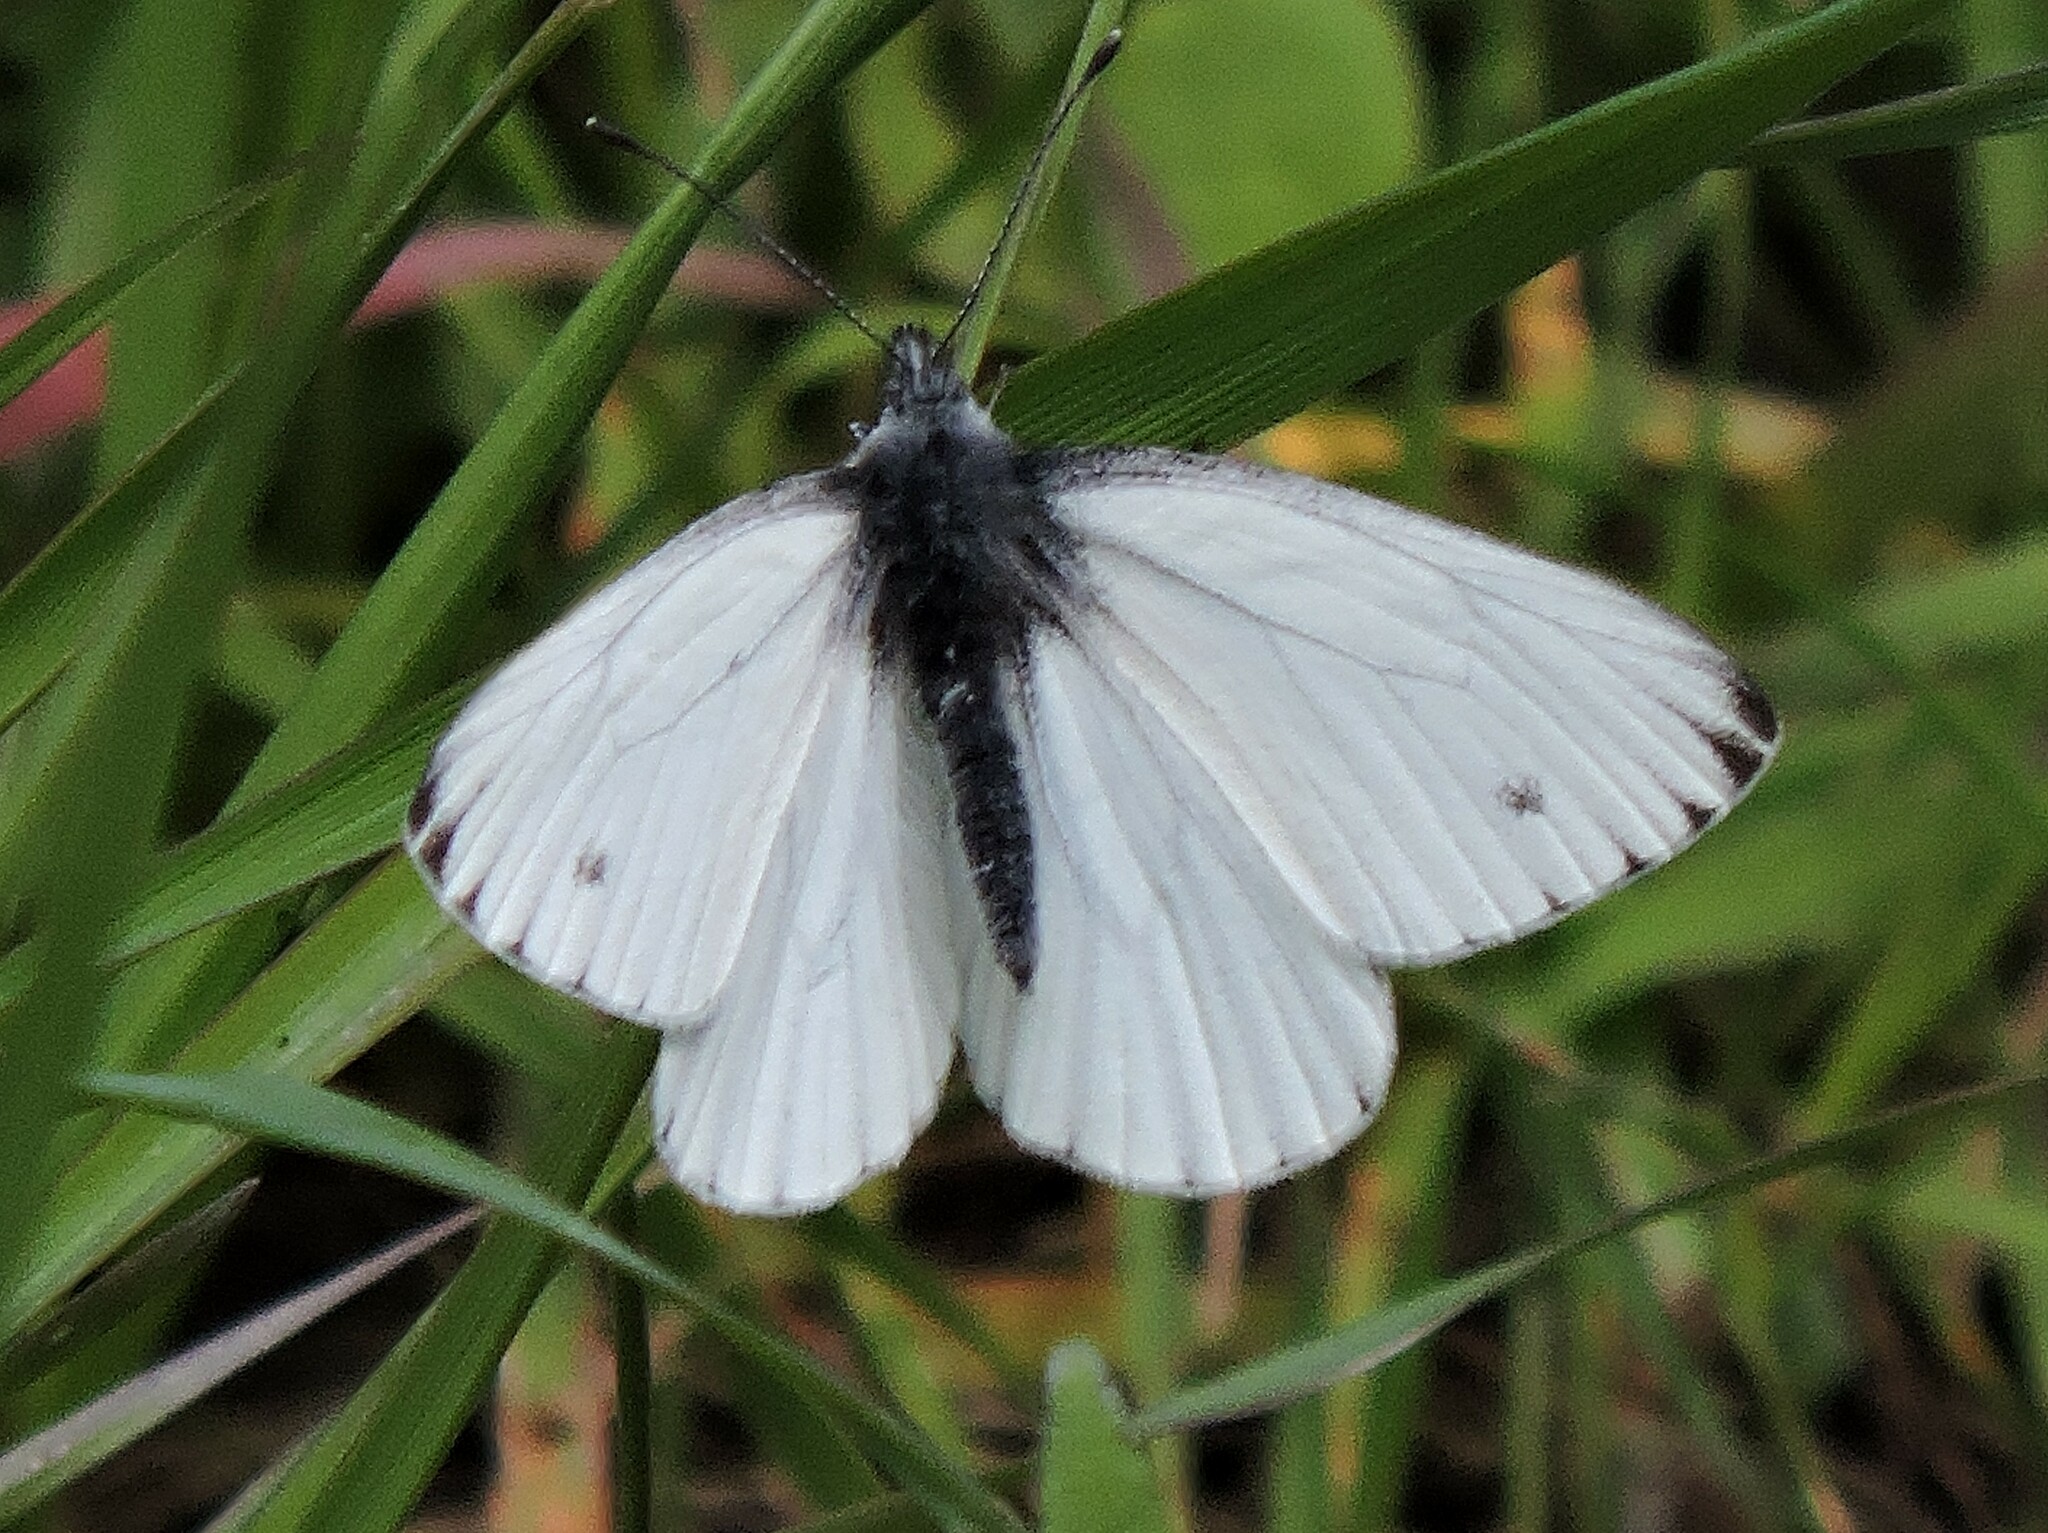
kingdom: Animalia
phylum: Arthropoda
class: Insecta
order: Lepidoptera
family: Pieridae
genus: Pieris
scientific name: Pieris marginalis
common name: Margined white
